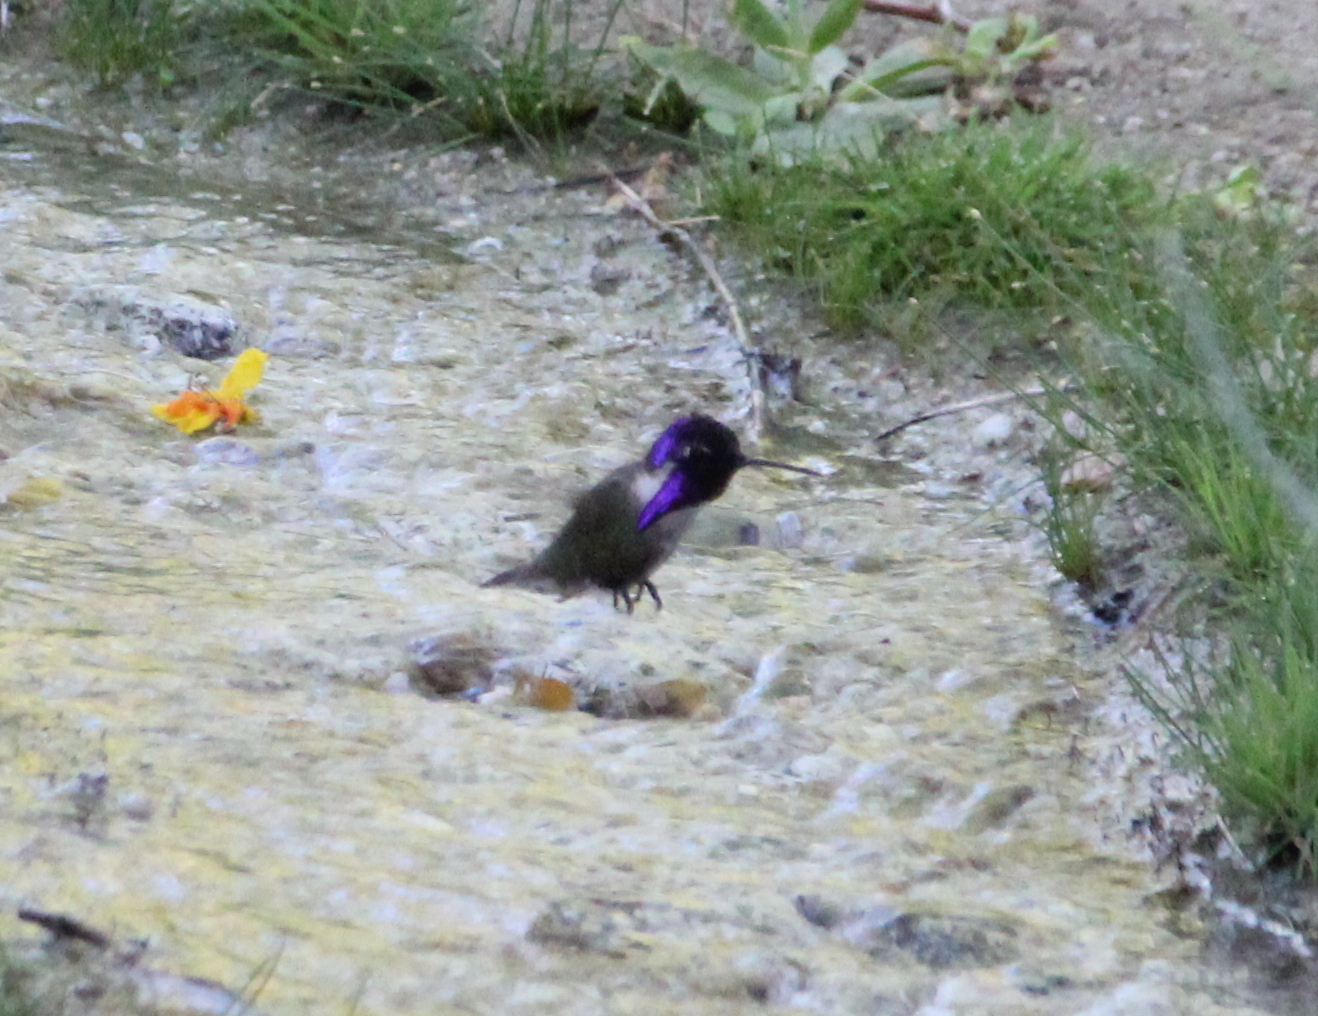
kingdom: Animalia
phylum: Chordata
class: Aves
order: Apodiformes
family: Trochilidae
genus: Calypte
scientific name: Calypte costae
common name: Costa's hummingbird
